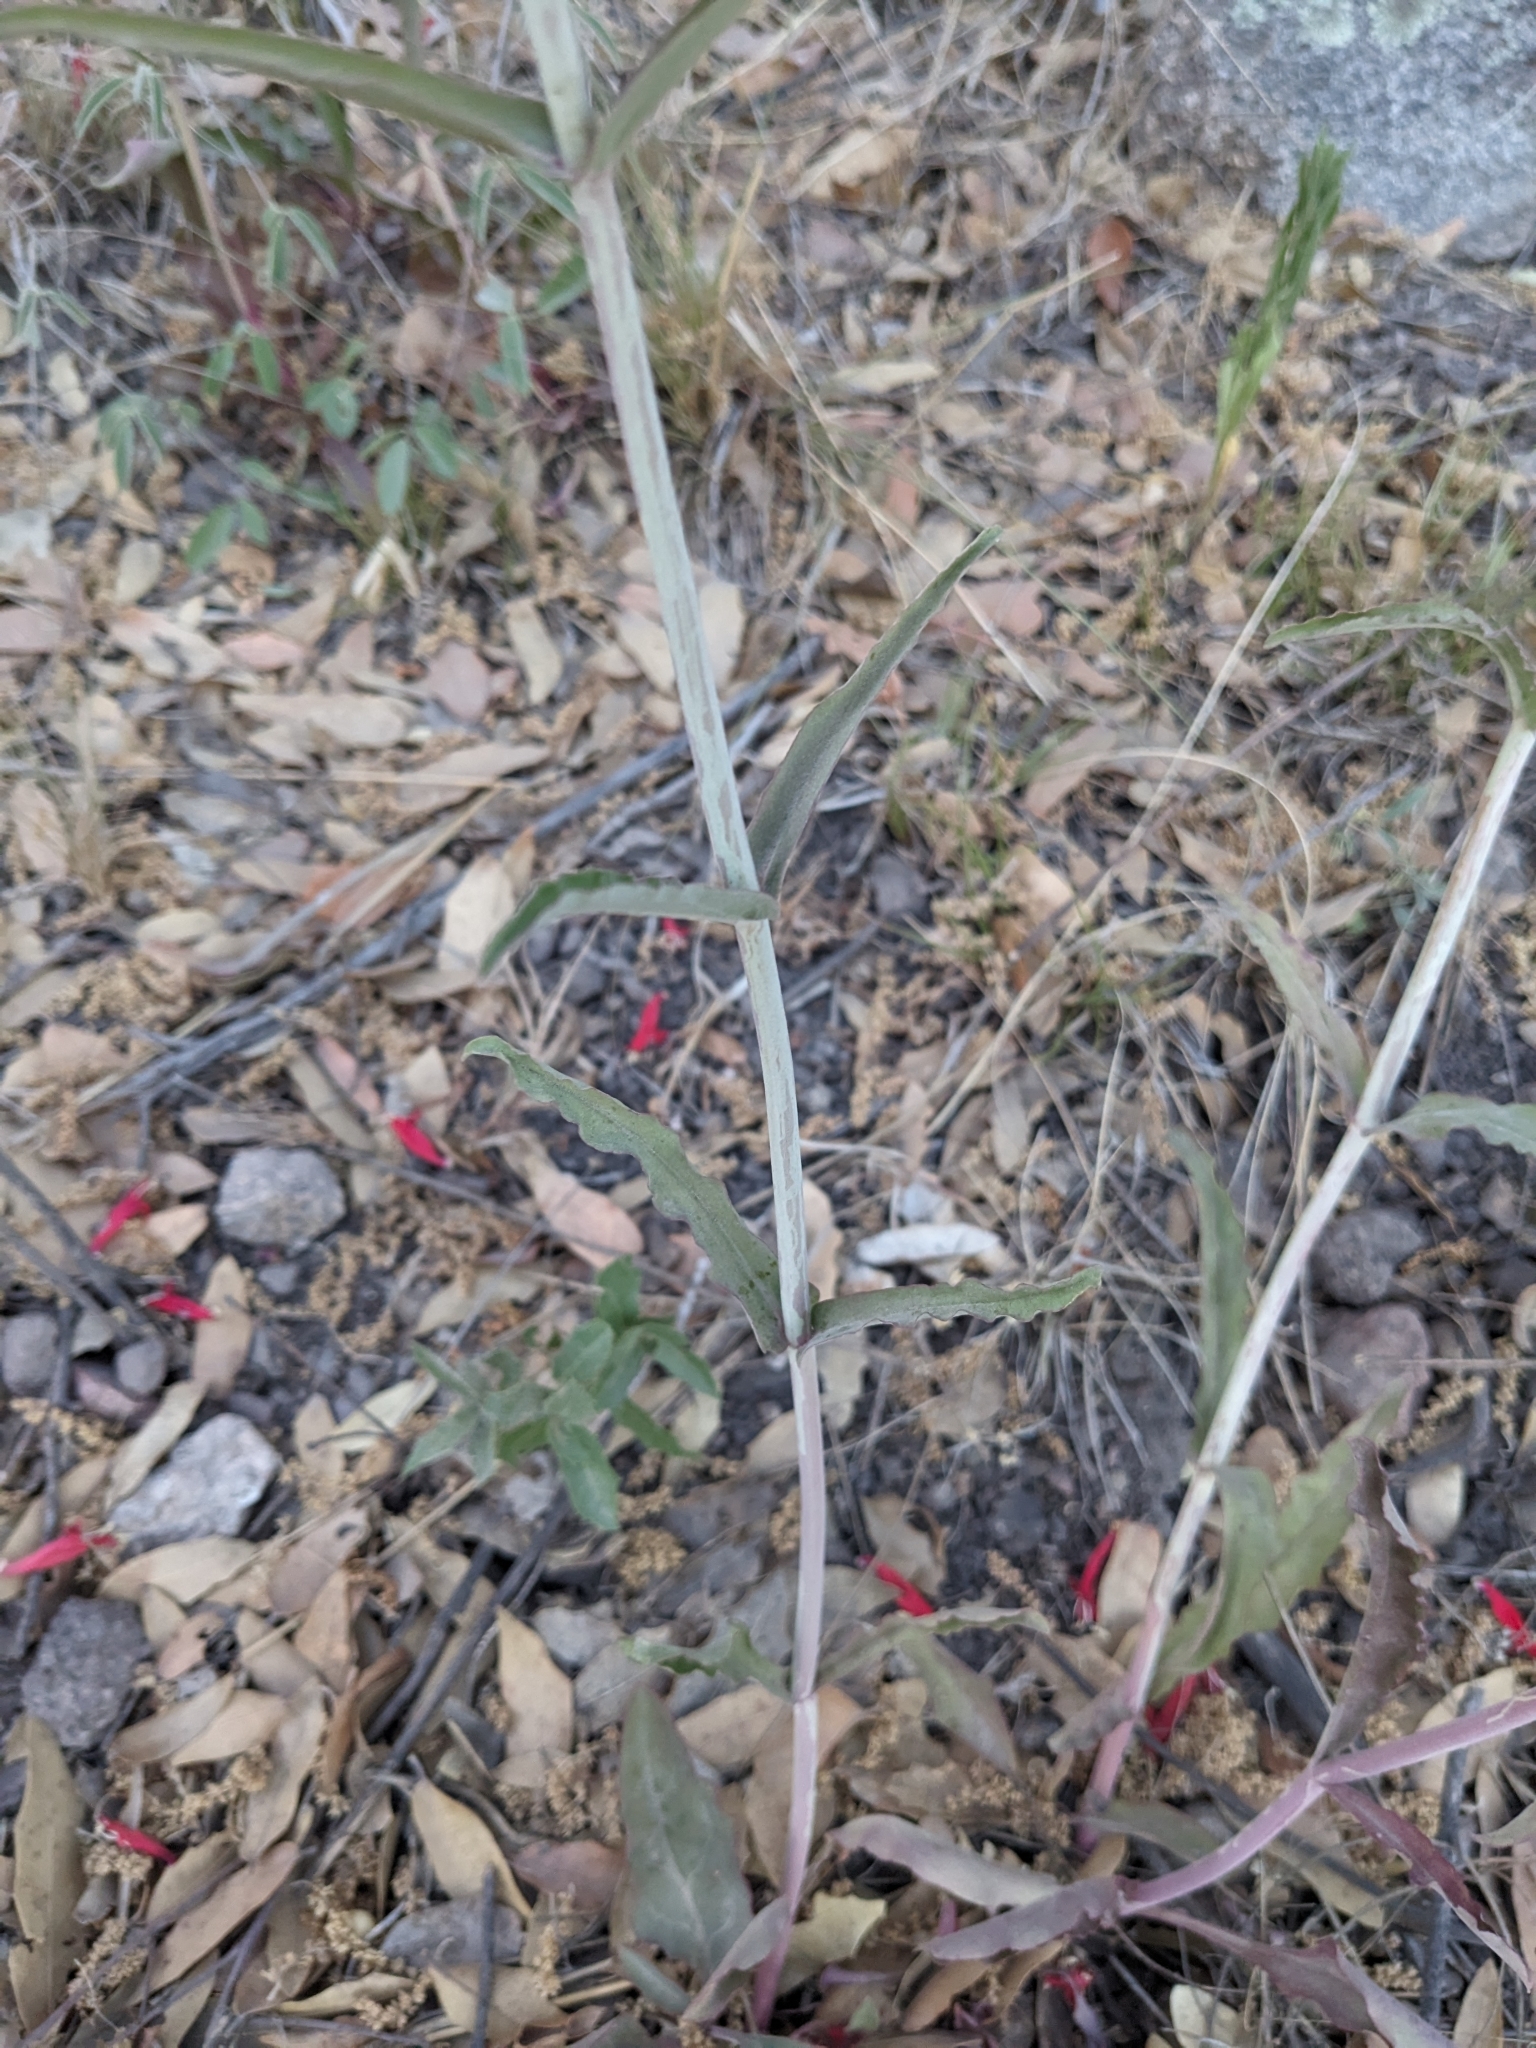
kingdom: Plantae
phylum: Tracheophyta
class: Magnoliopsida
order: Malpighiales
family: Salicaceae
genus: Salix
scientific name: Salix taxifolia
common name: Yew-leaf willow
